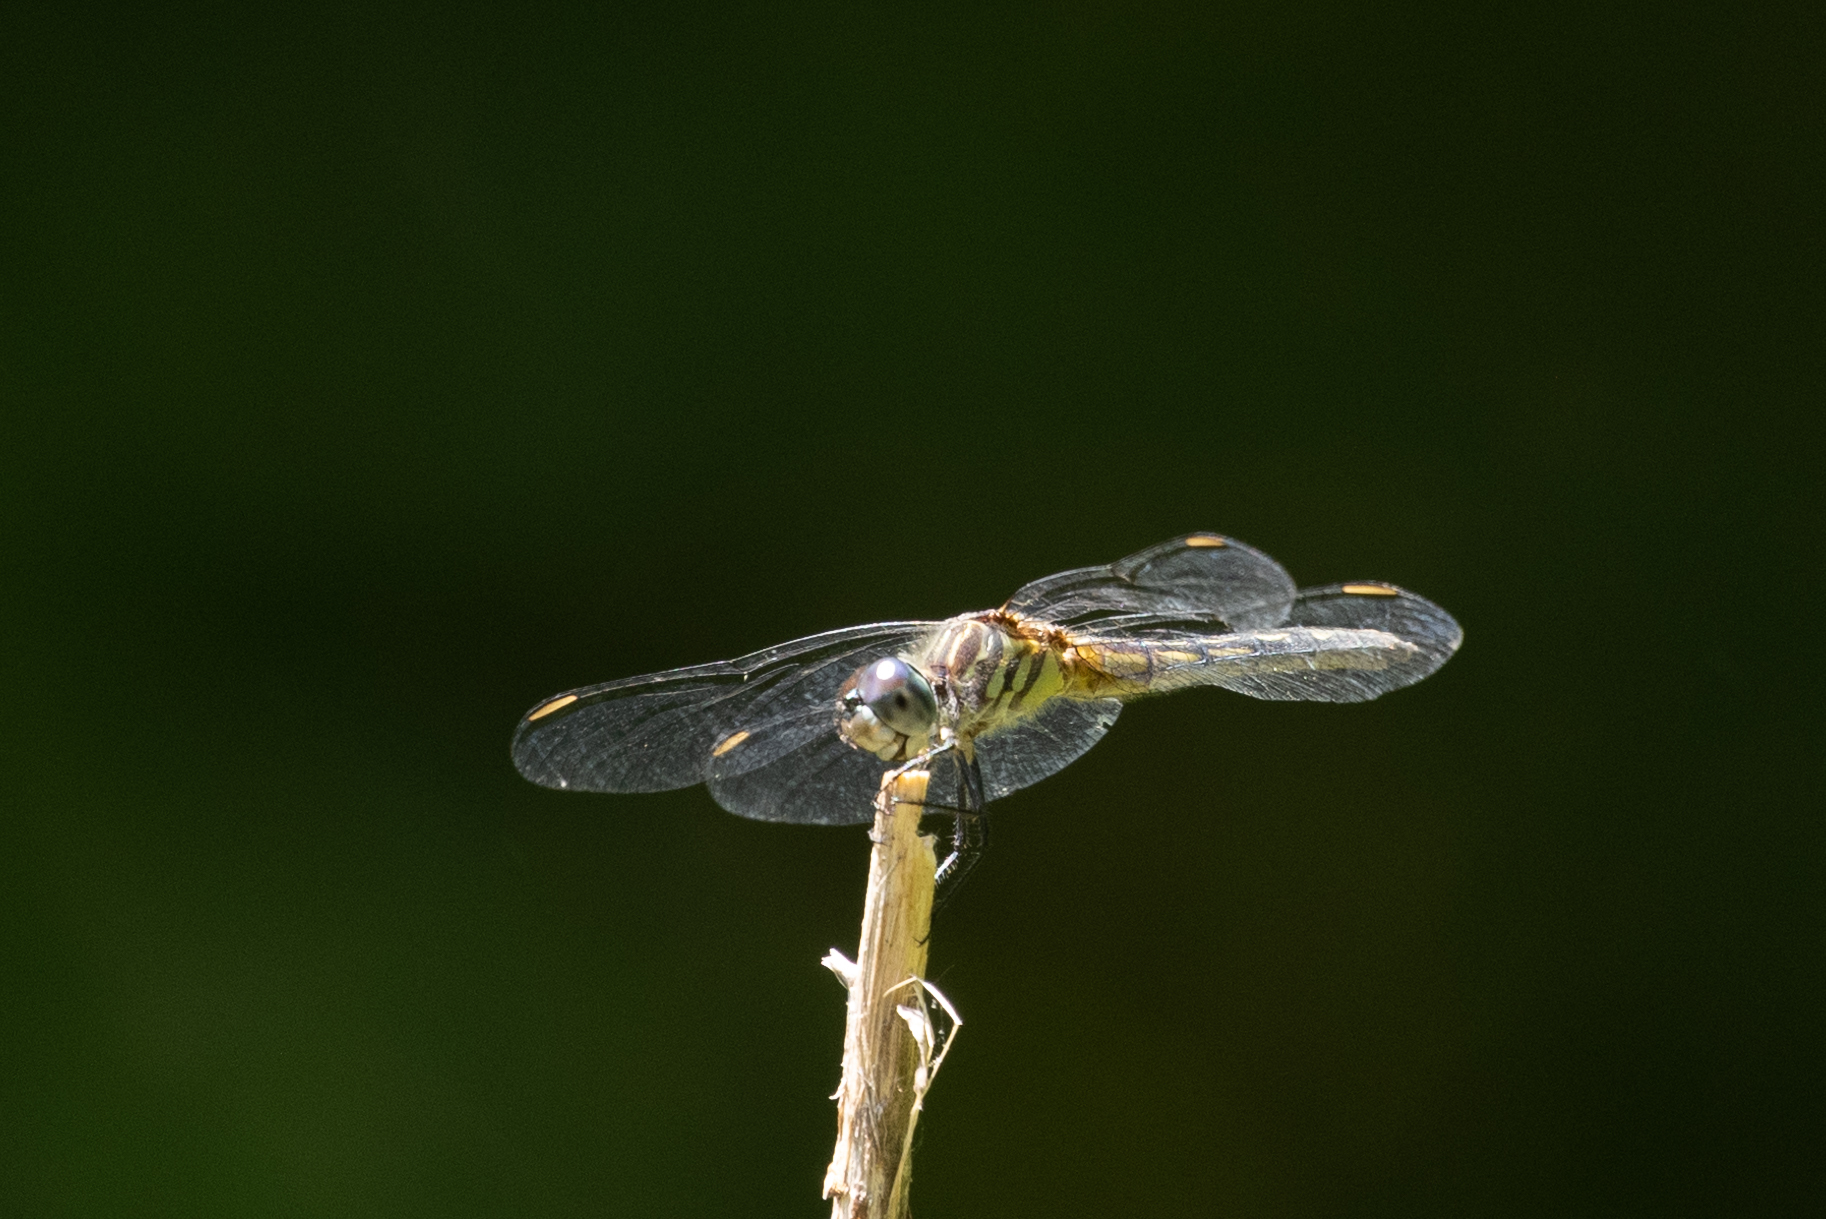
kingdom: Animalia
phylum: Arthropoda
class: Insecta
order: Odonata
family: Libellulidae
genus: Pachydiplax
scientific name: Pachydiplax longipennis
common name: Blue dasher
